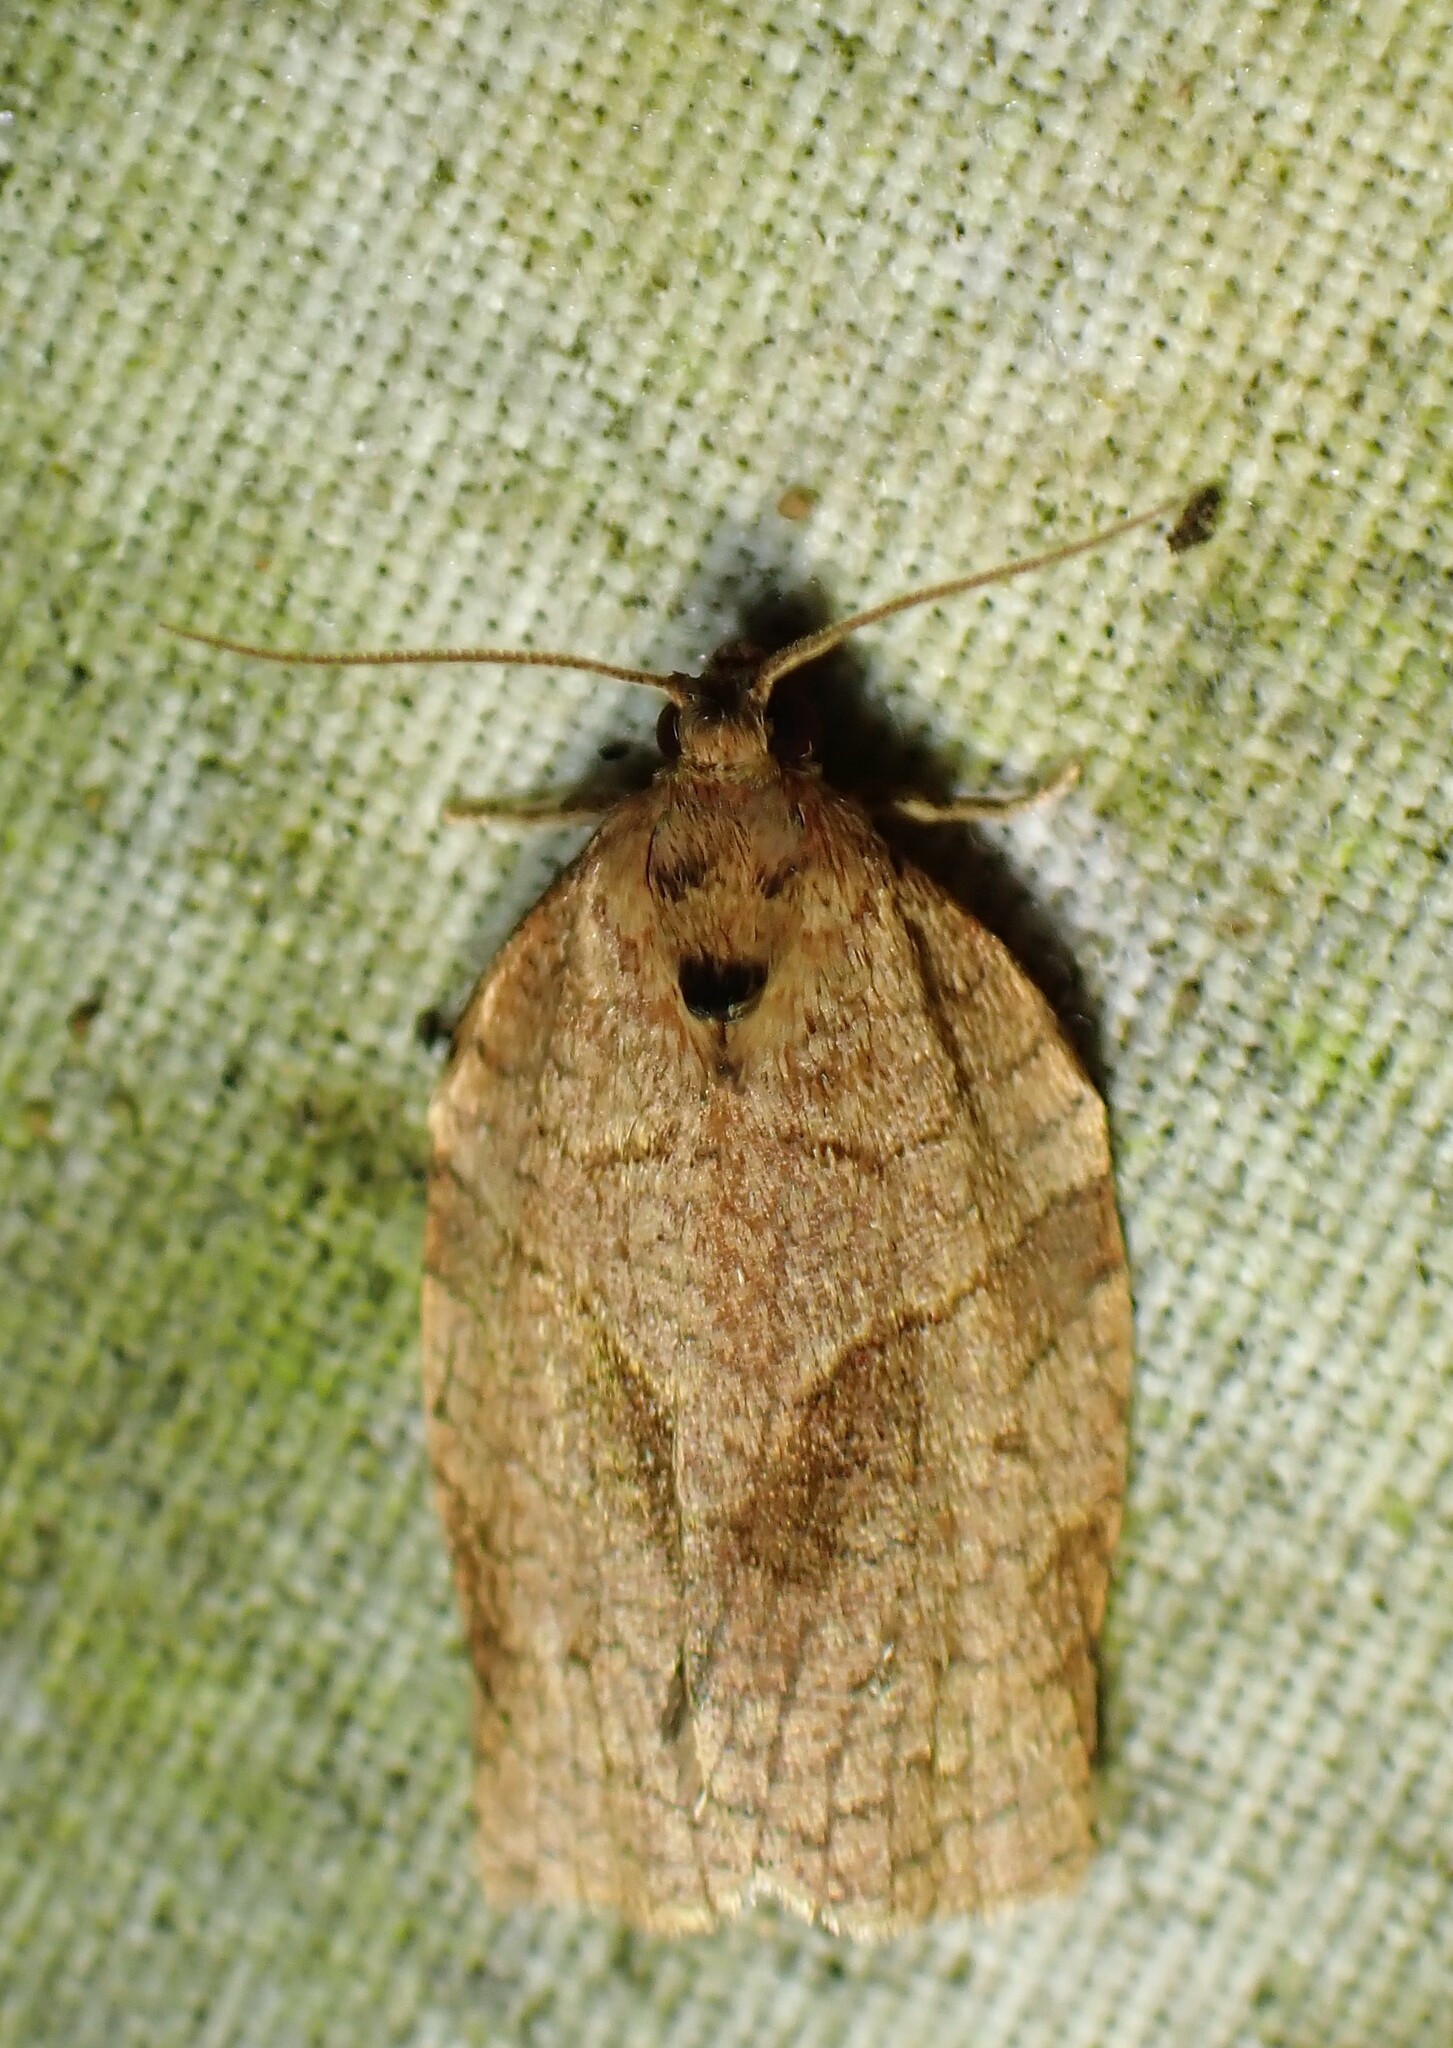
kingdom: Animalia
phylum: Arthropoda
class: Insecta
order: Lepidoptera
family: Tortricidae
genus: Choristoneura
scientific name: Choristoneura rosaceana
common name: Oblique-banded leafroller moth
